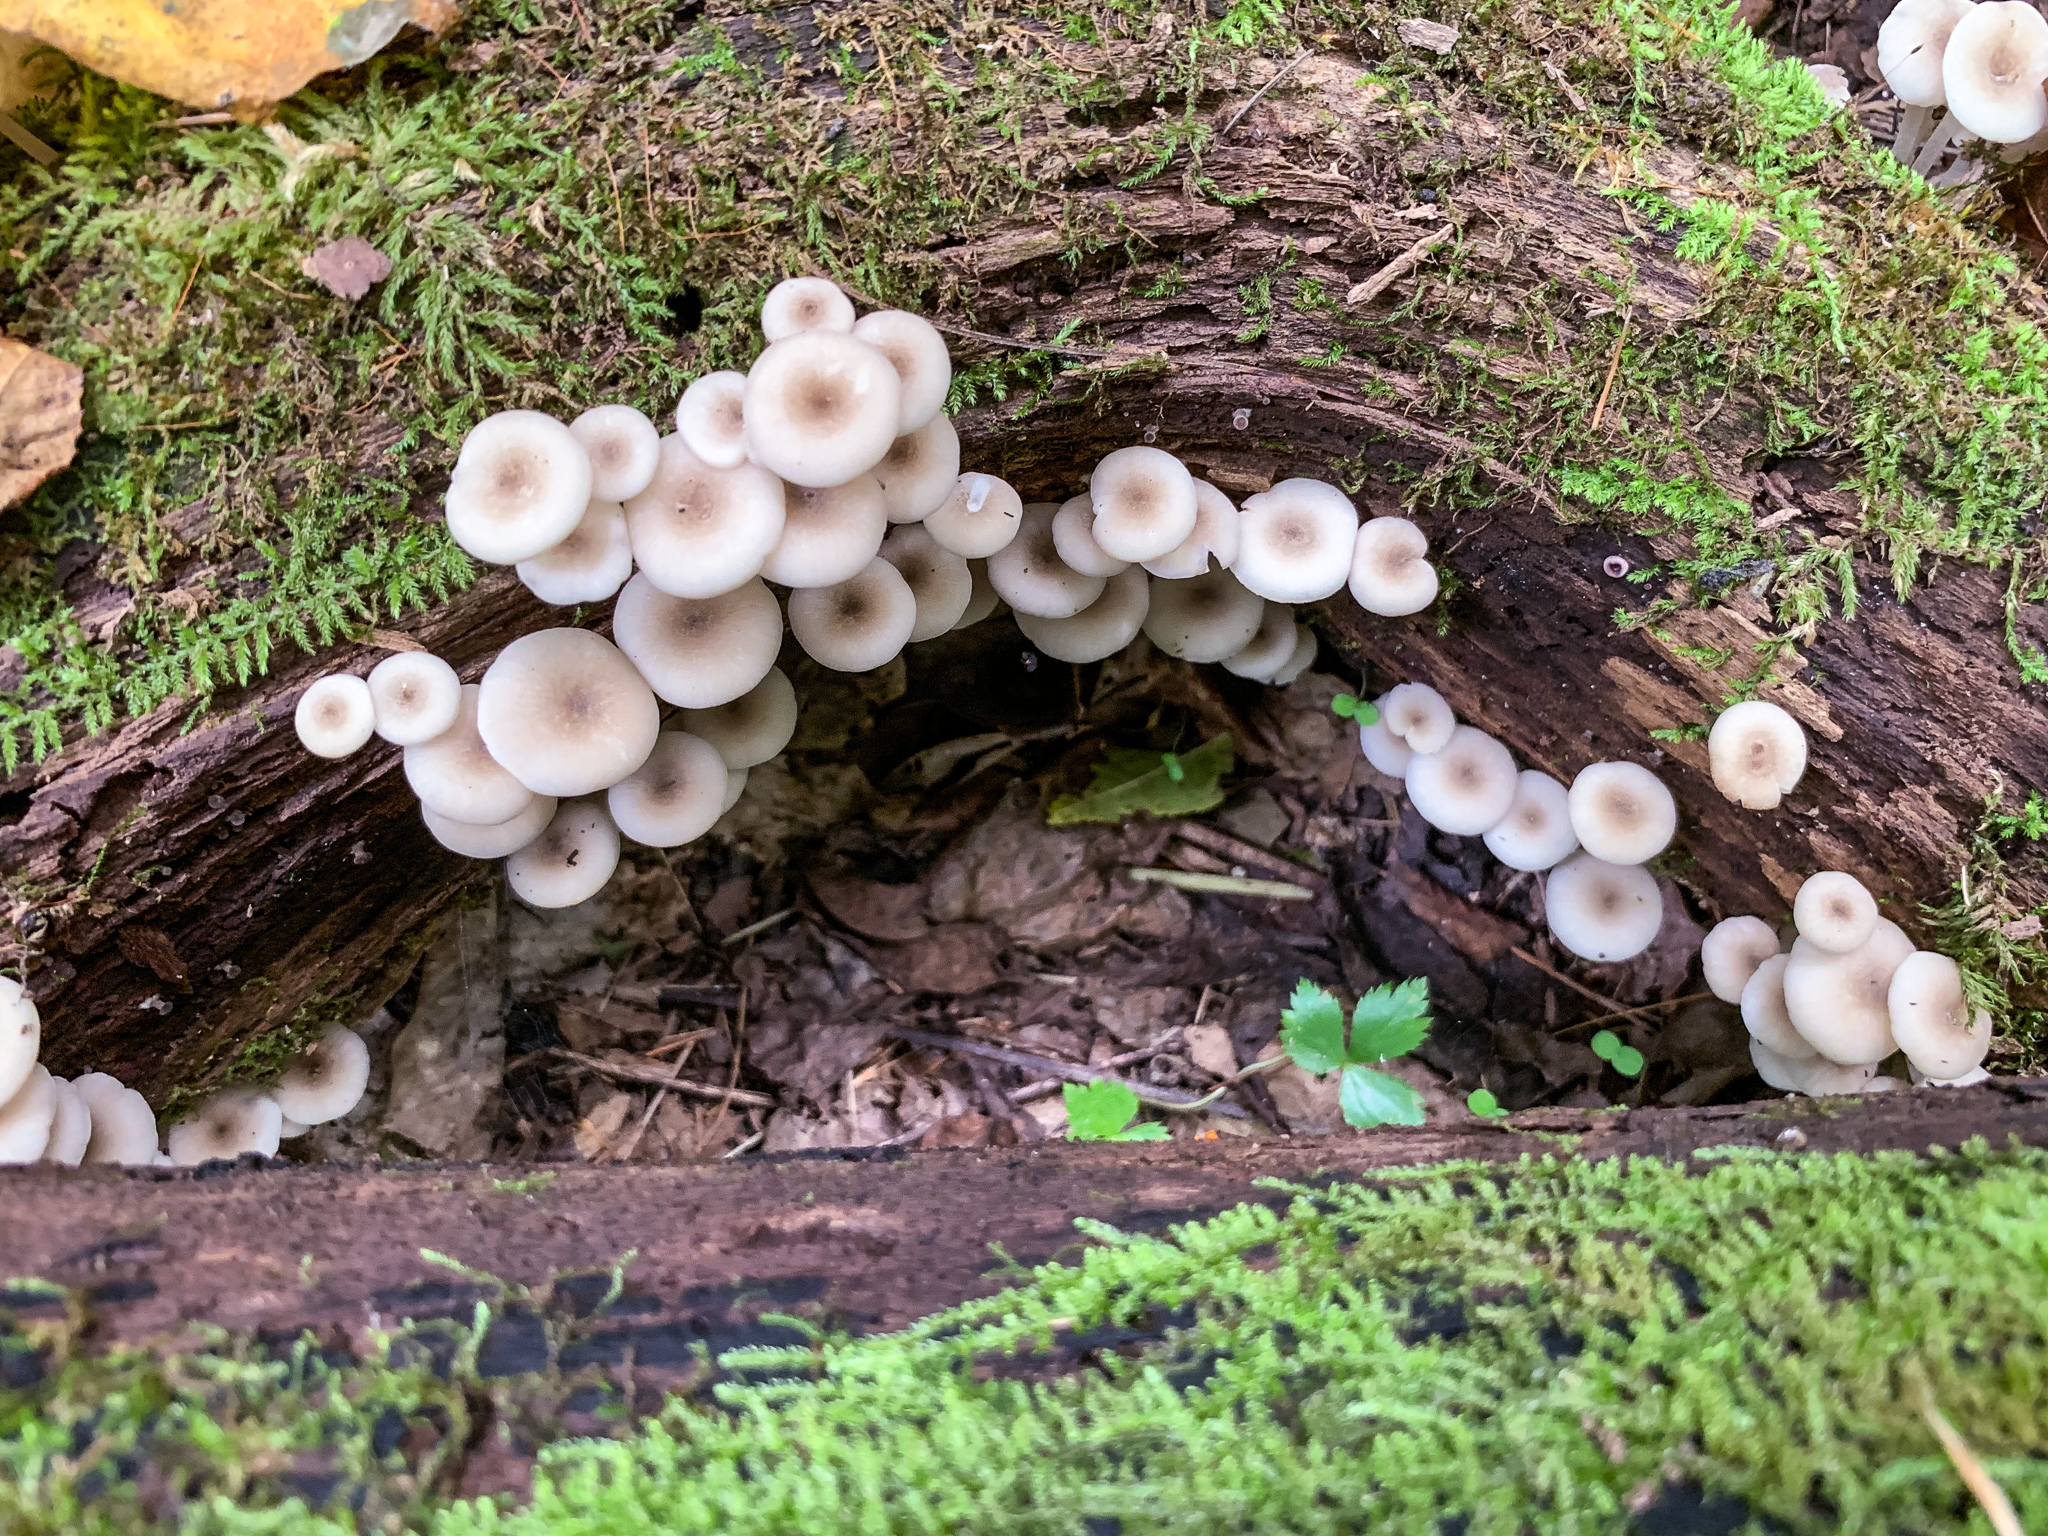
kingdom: Fungi
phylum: Basidiomycota
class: Agaricomycetes
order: Agaricales
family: Marasmiaceae
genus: Clitocybula
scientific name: Clitocybula oculus
